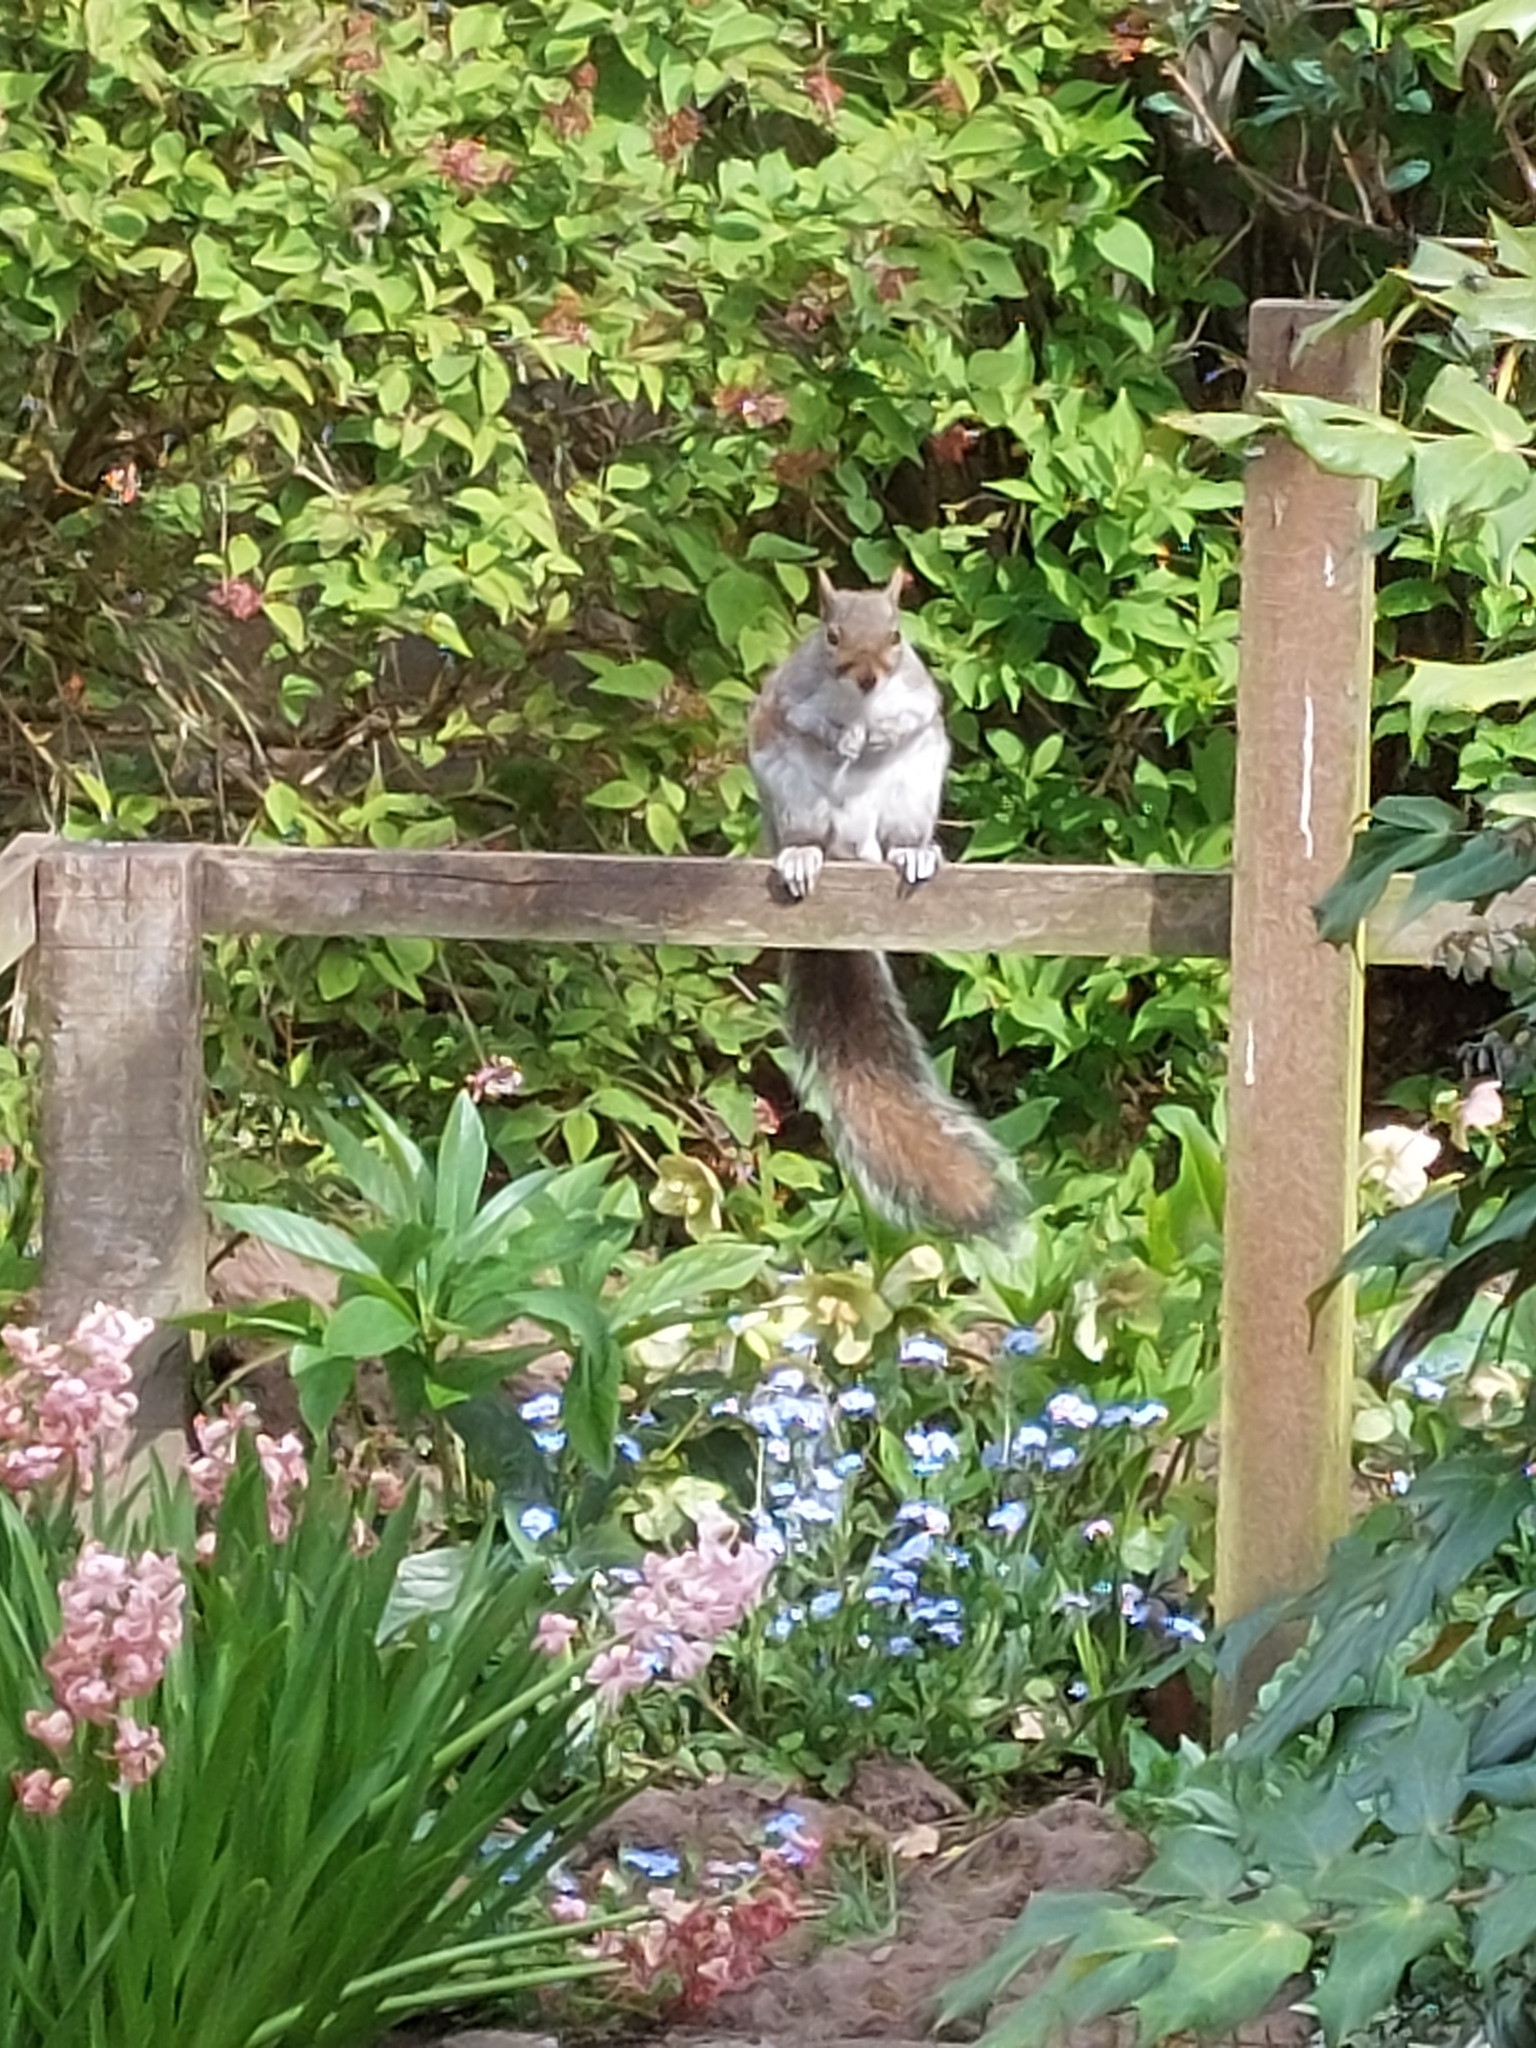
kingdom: Animalia
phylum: Chordata
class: Mammalia
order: Rodentia
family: Sciuridae
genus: Sciurus
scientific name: Sciurus carolinensis
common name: Eastern gray squirrel
